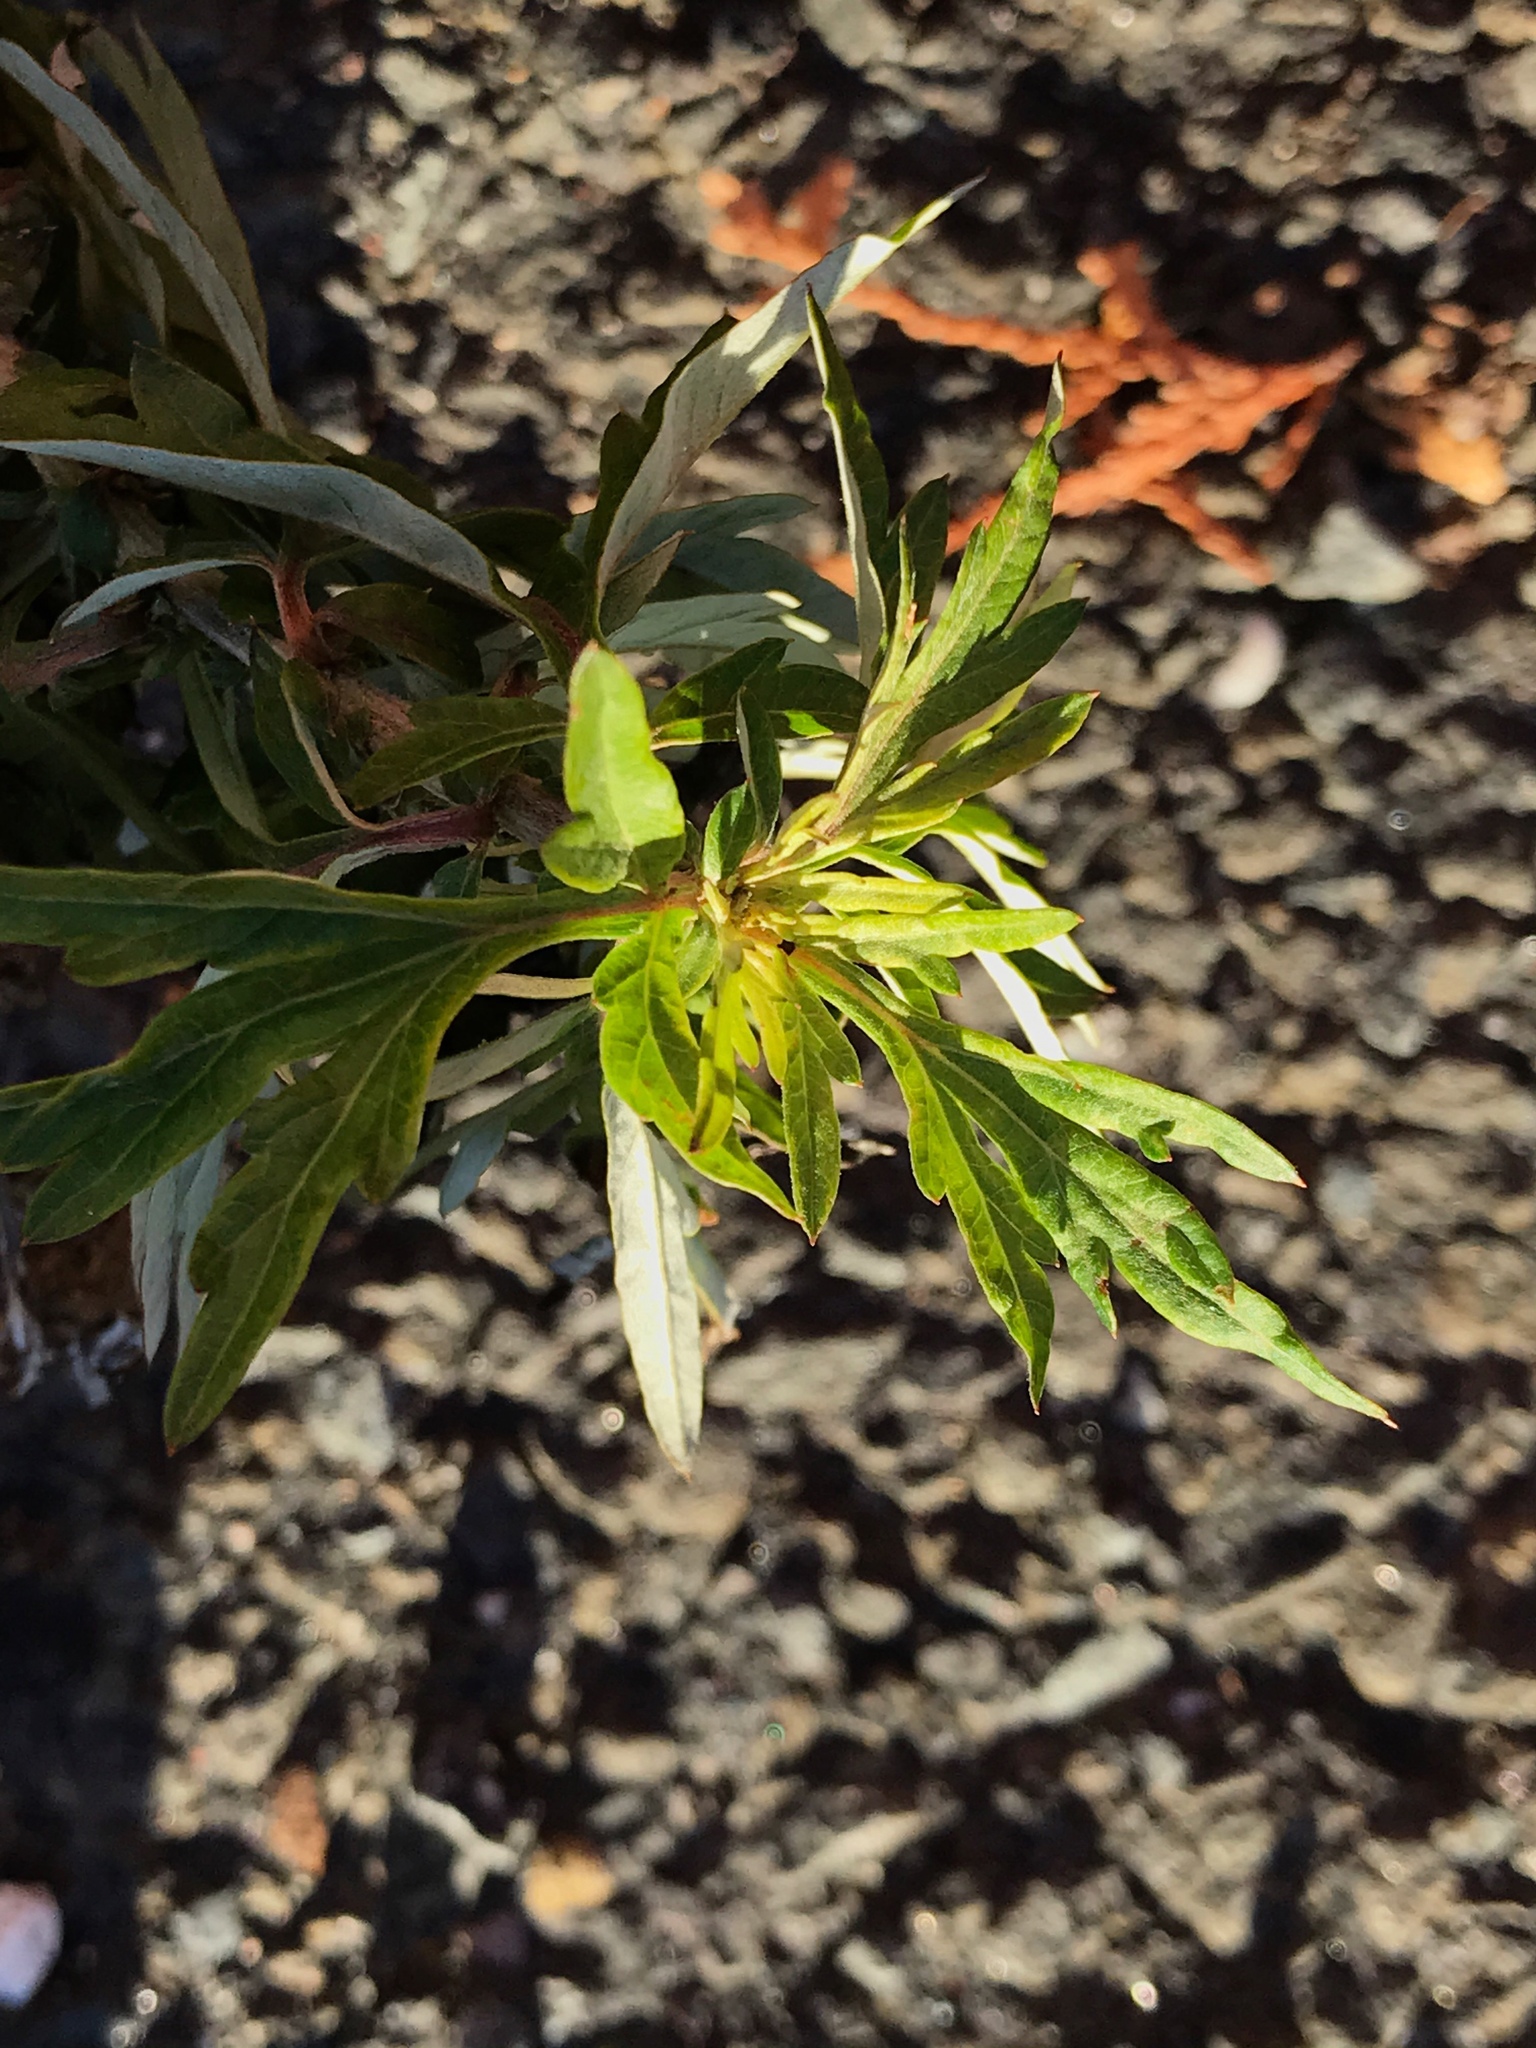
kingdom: Plantae
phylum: Tracheophyta
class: Magnoliopsida
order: Asterales
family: Asteraceae
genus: Artemisia
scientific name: Artemisia vulgaris
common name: Mugwort
